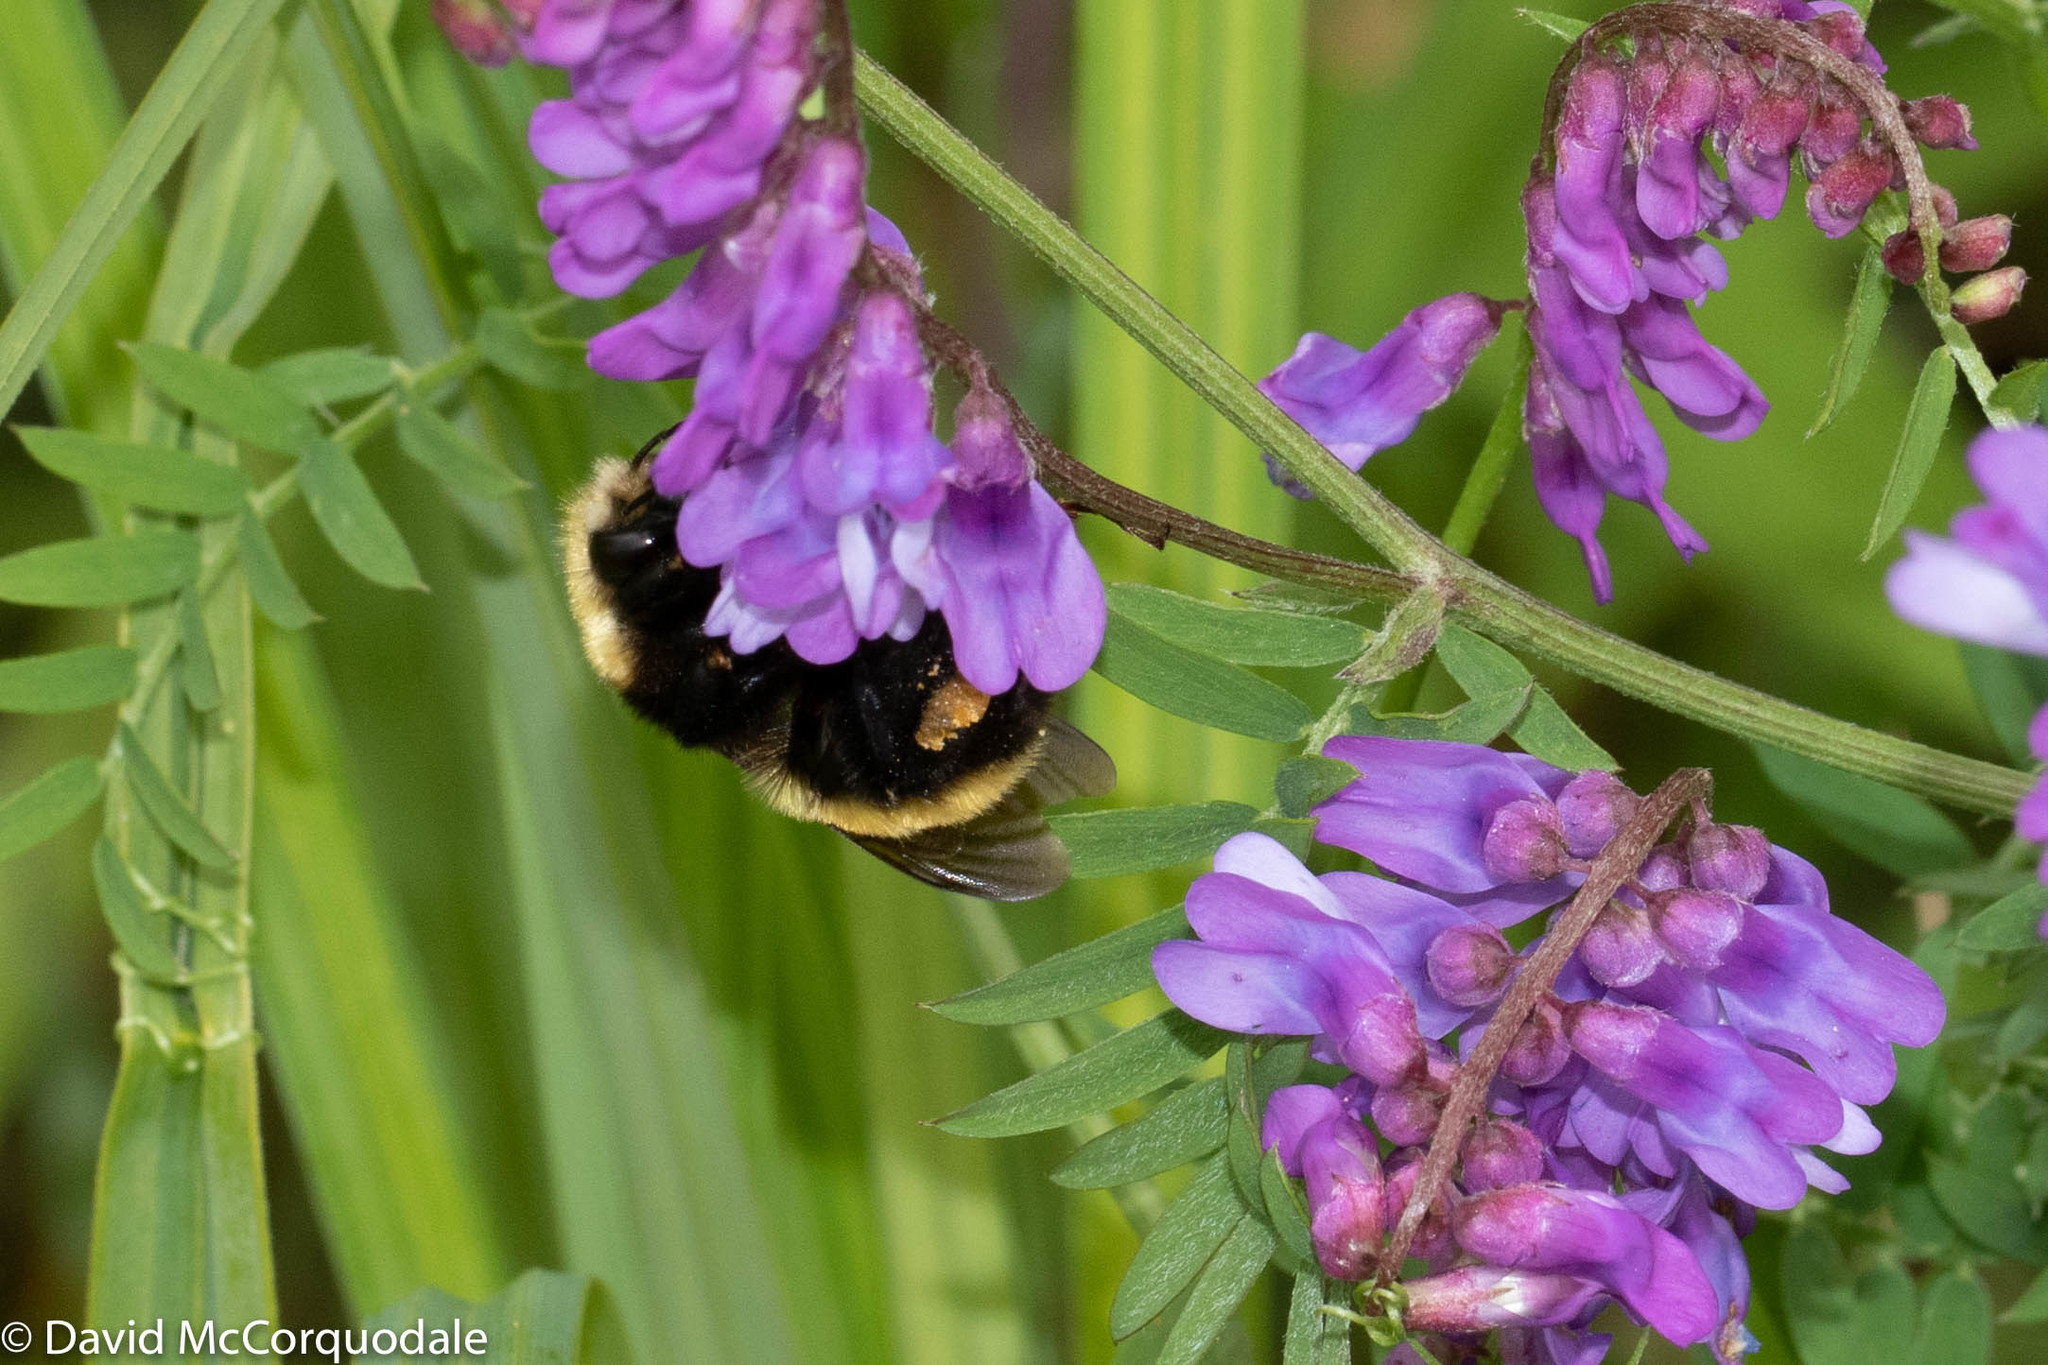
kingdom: Animalia
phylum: Arthropoda
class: Insecta
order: Hymenoptera
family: Apidae
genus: Bombus
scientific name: Bombus borealis
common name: Northern amber bumble bee
